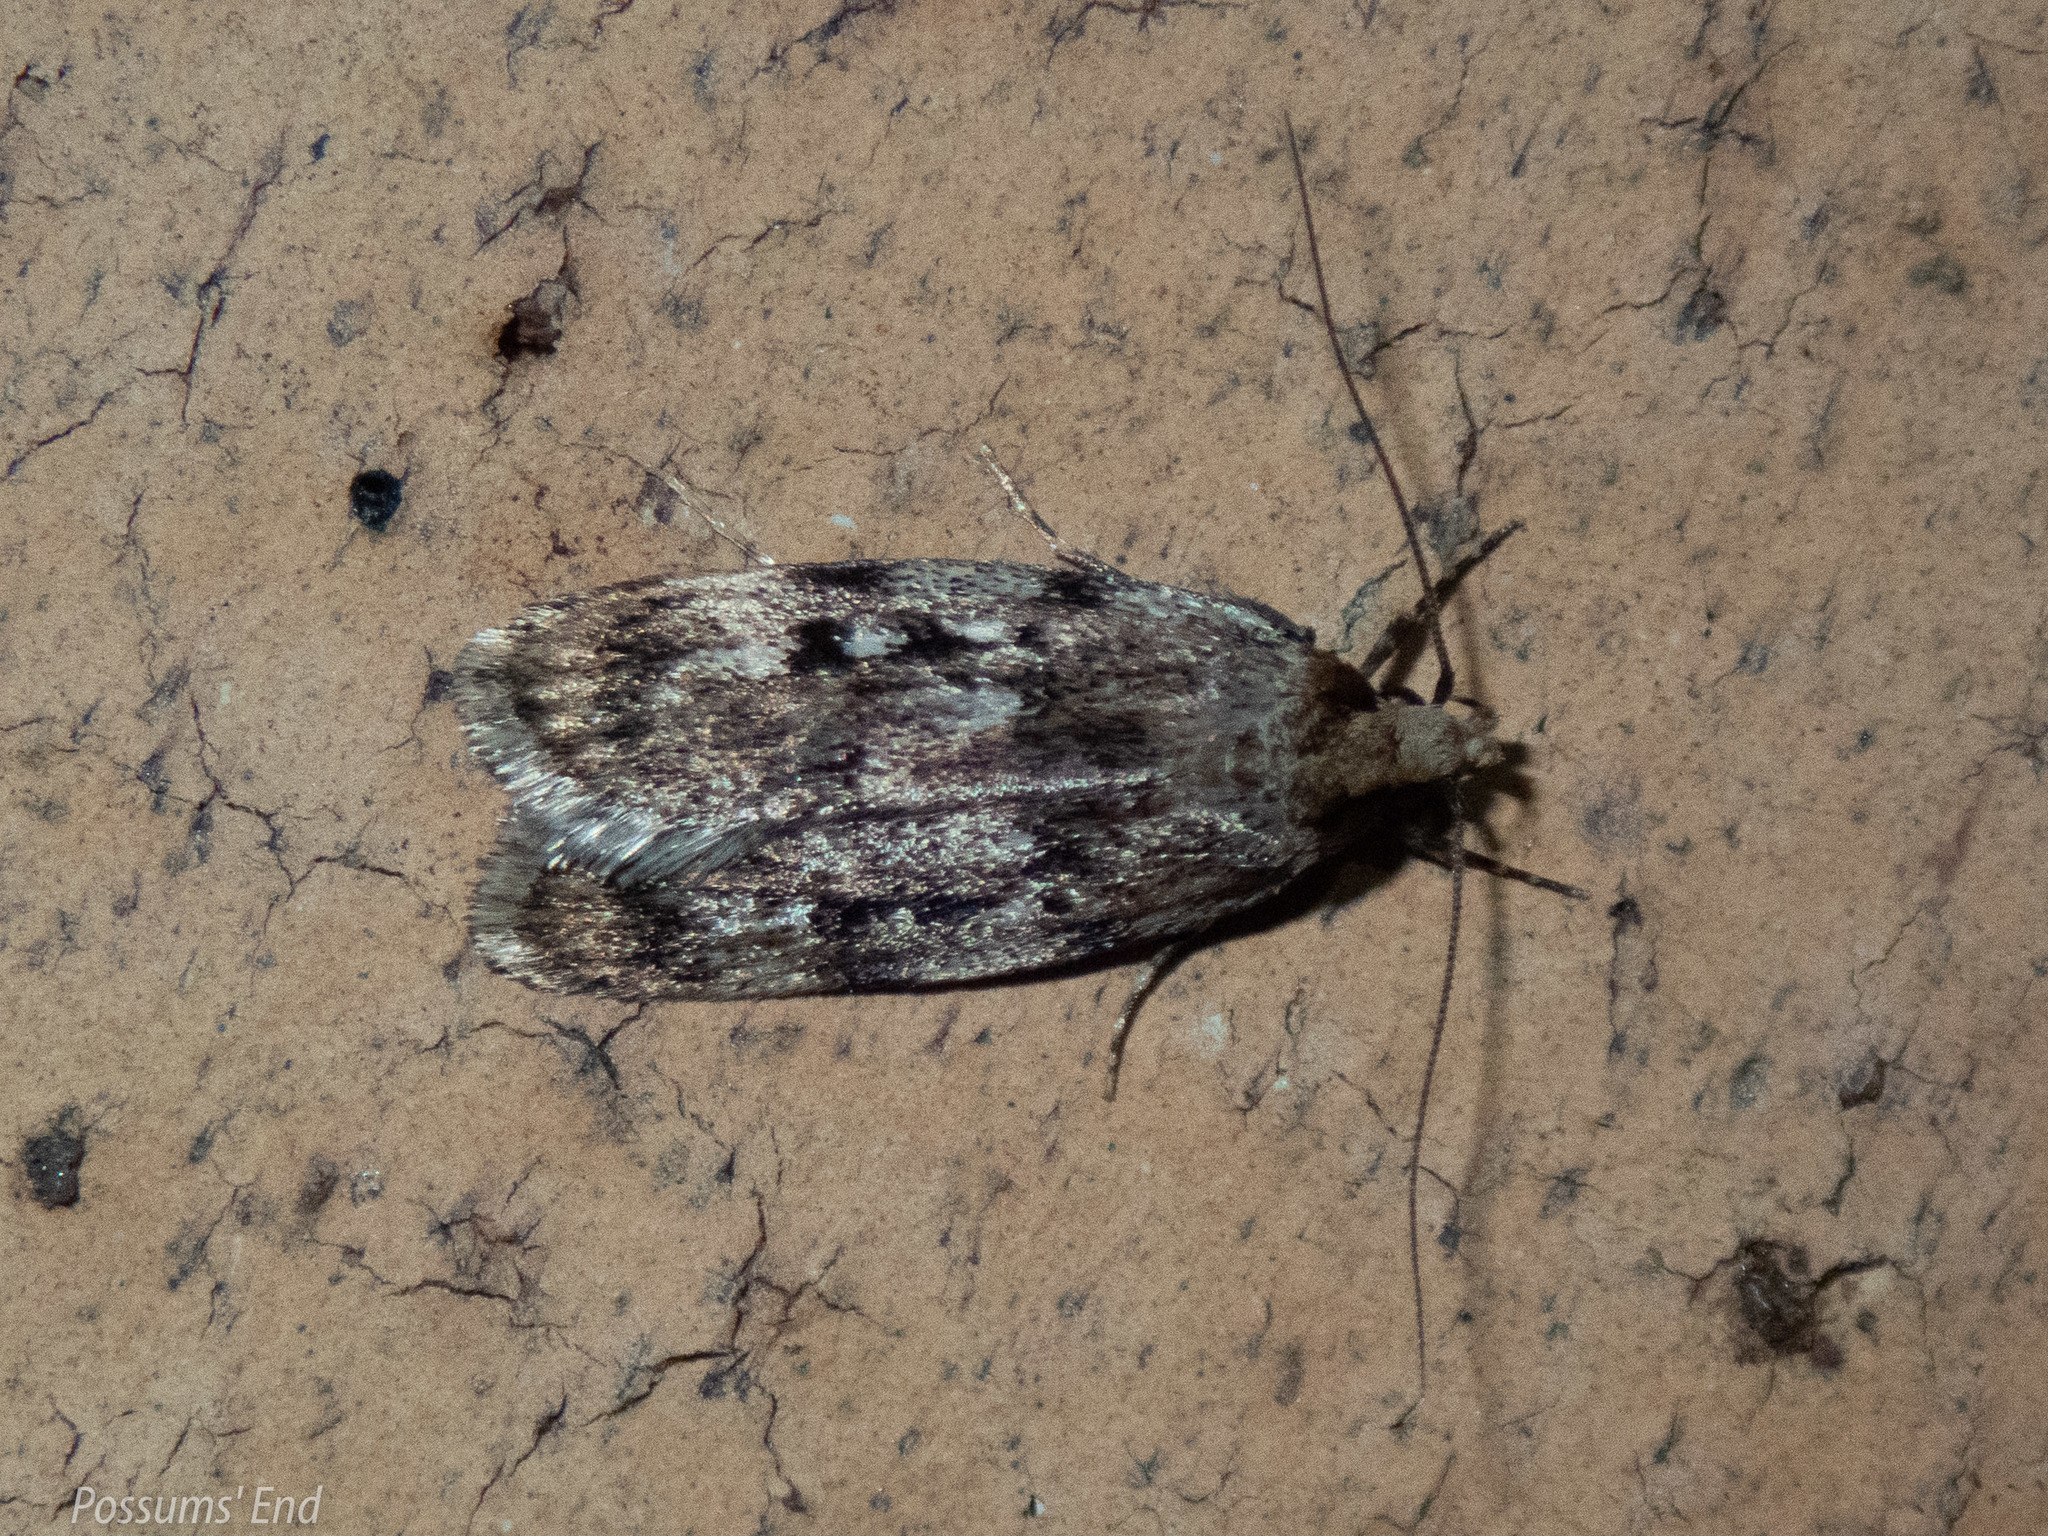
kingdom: Animalia
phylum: Arthropoda
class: Insecta
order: Lepidoptera
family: Oecophoridae
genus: Barea
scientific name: Barea exarcha
